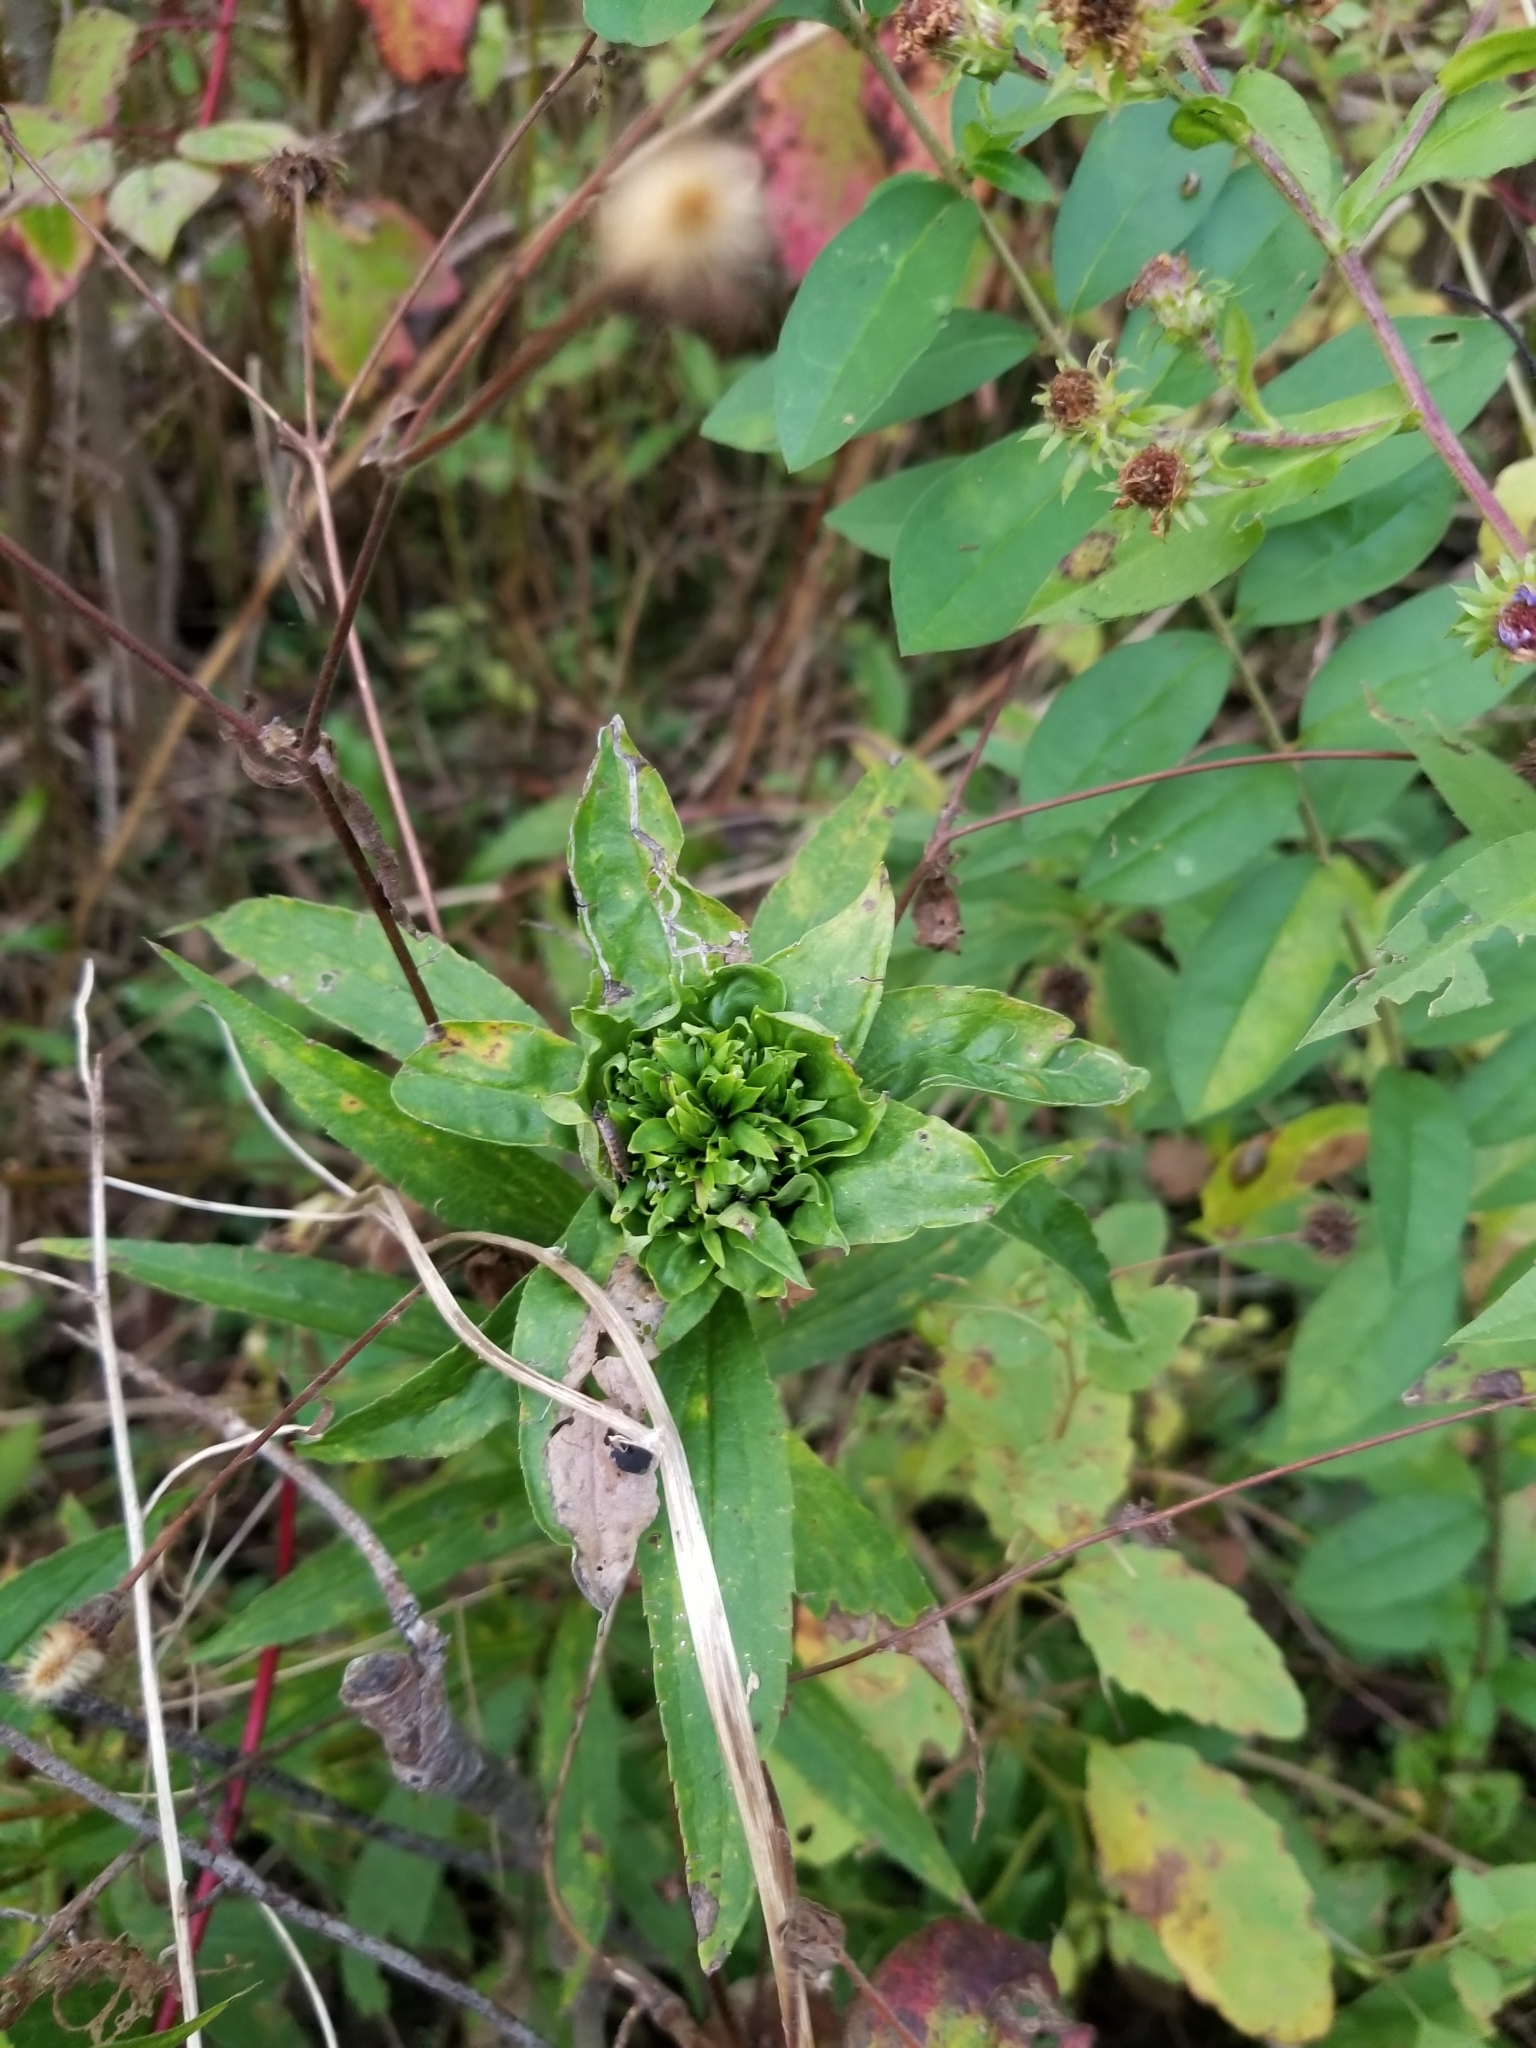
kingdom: Animalia
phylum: Arthropoda
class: Insecta
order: Diptera
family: Cecidomyiidae
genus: Rhopalomyia
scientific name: Rhopalomyia capitata
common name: Giant goldenrod bunch gall midge
